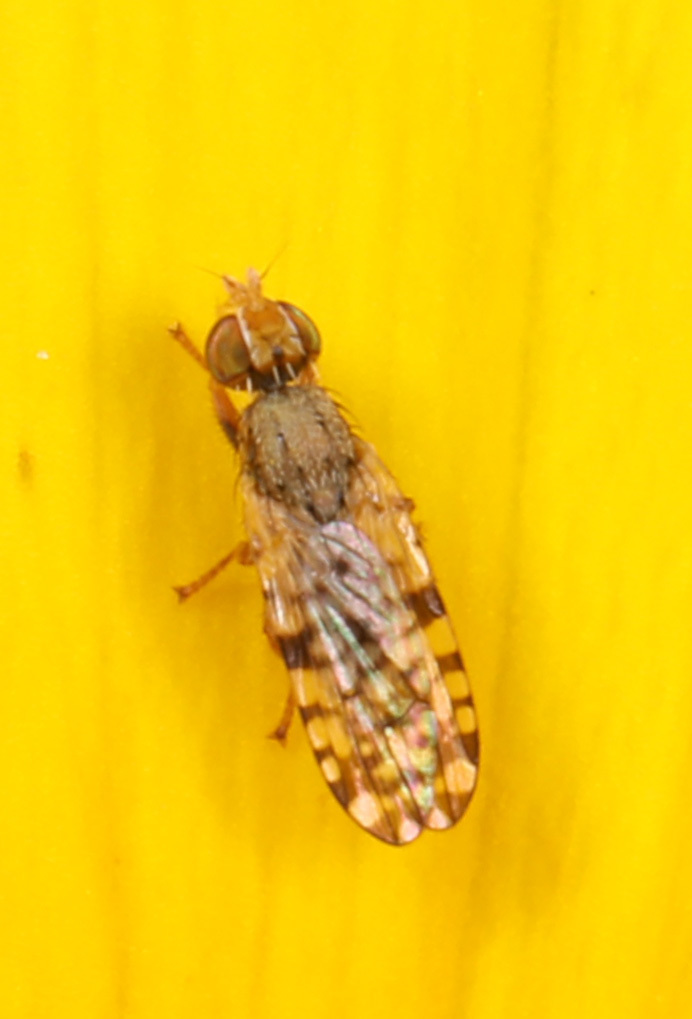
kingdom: Animalia
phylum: Arthropoda
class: Insecta
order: Diptera
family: Tephritidae
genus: Dioxyna
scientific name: Dioxyna picciola
